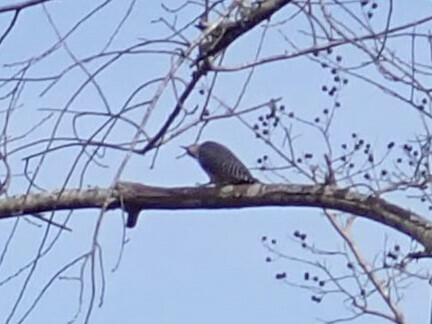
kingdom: Animalia
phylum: Chordata
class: Aves
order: Piciformes
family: Picidae
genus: Melanerpes
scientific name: Melanerpes carolinus
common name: Red-bellied woodpecker
